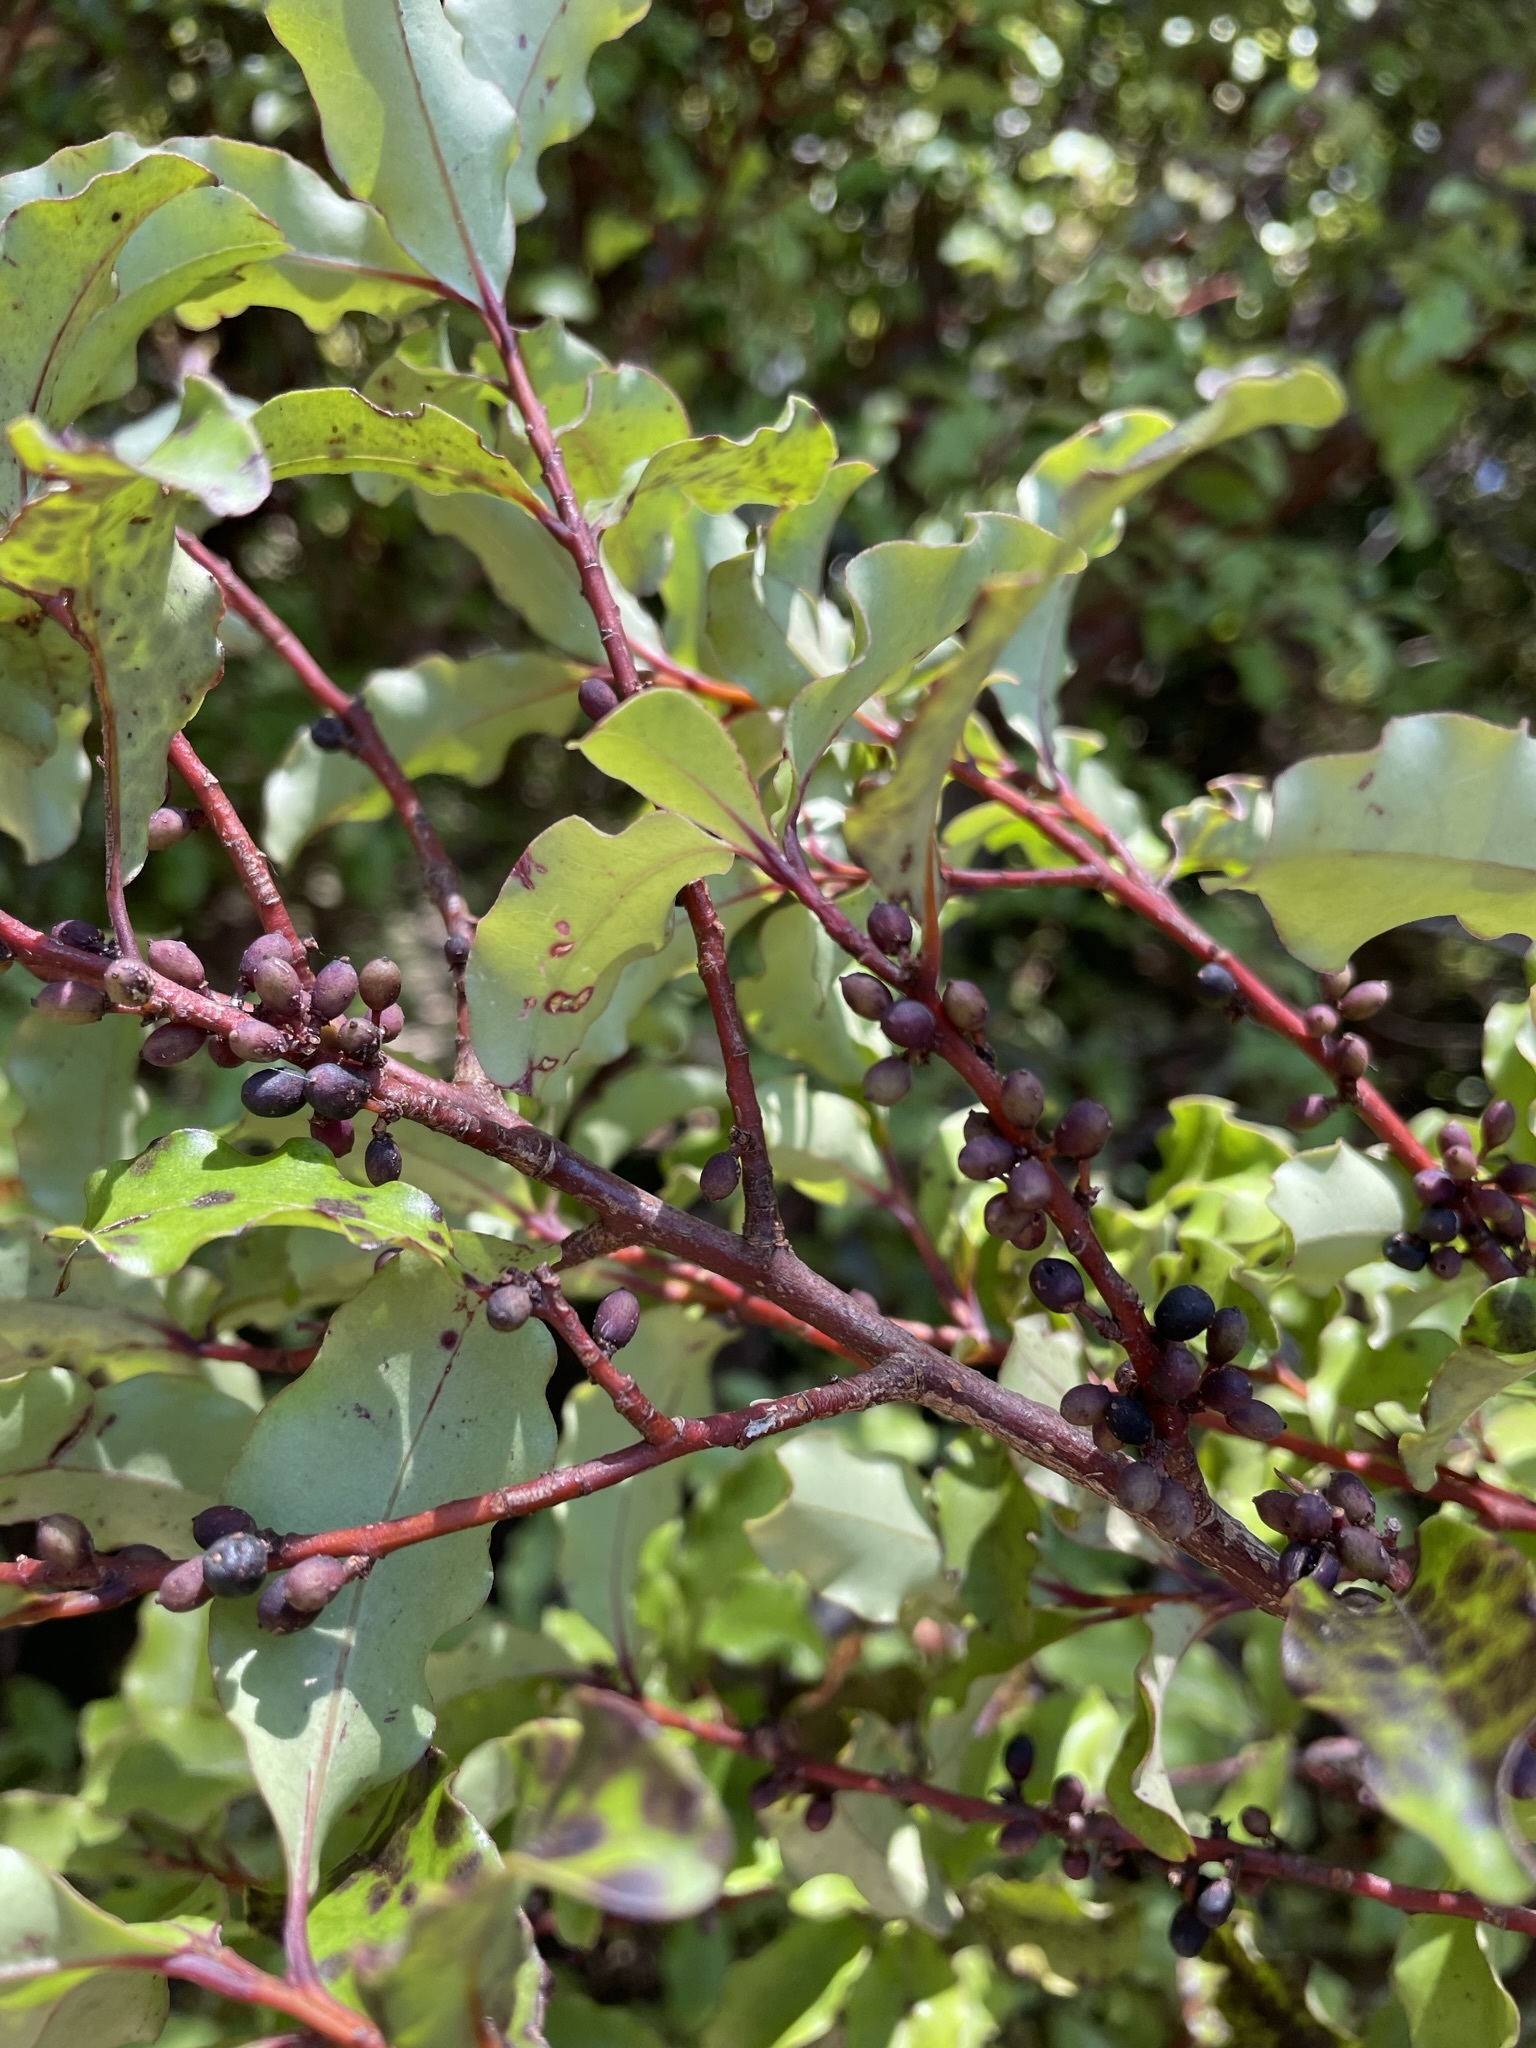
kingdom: Plantae
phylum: Tracheophyta
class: Magnoliopsida
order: Ericales
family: Primulaceae
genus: Myrsine
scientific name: Myrsine australis
